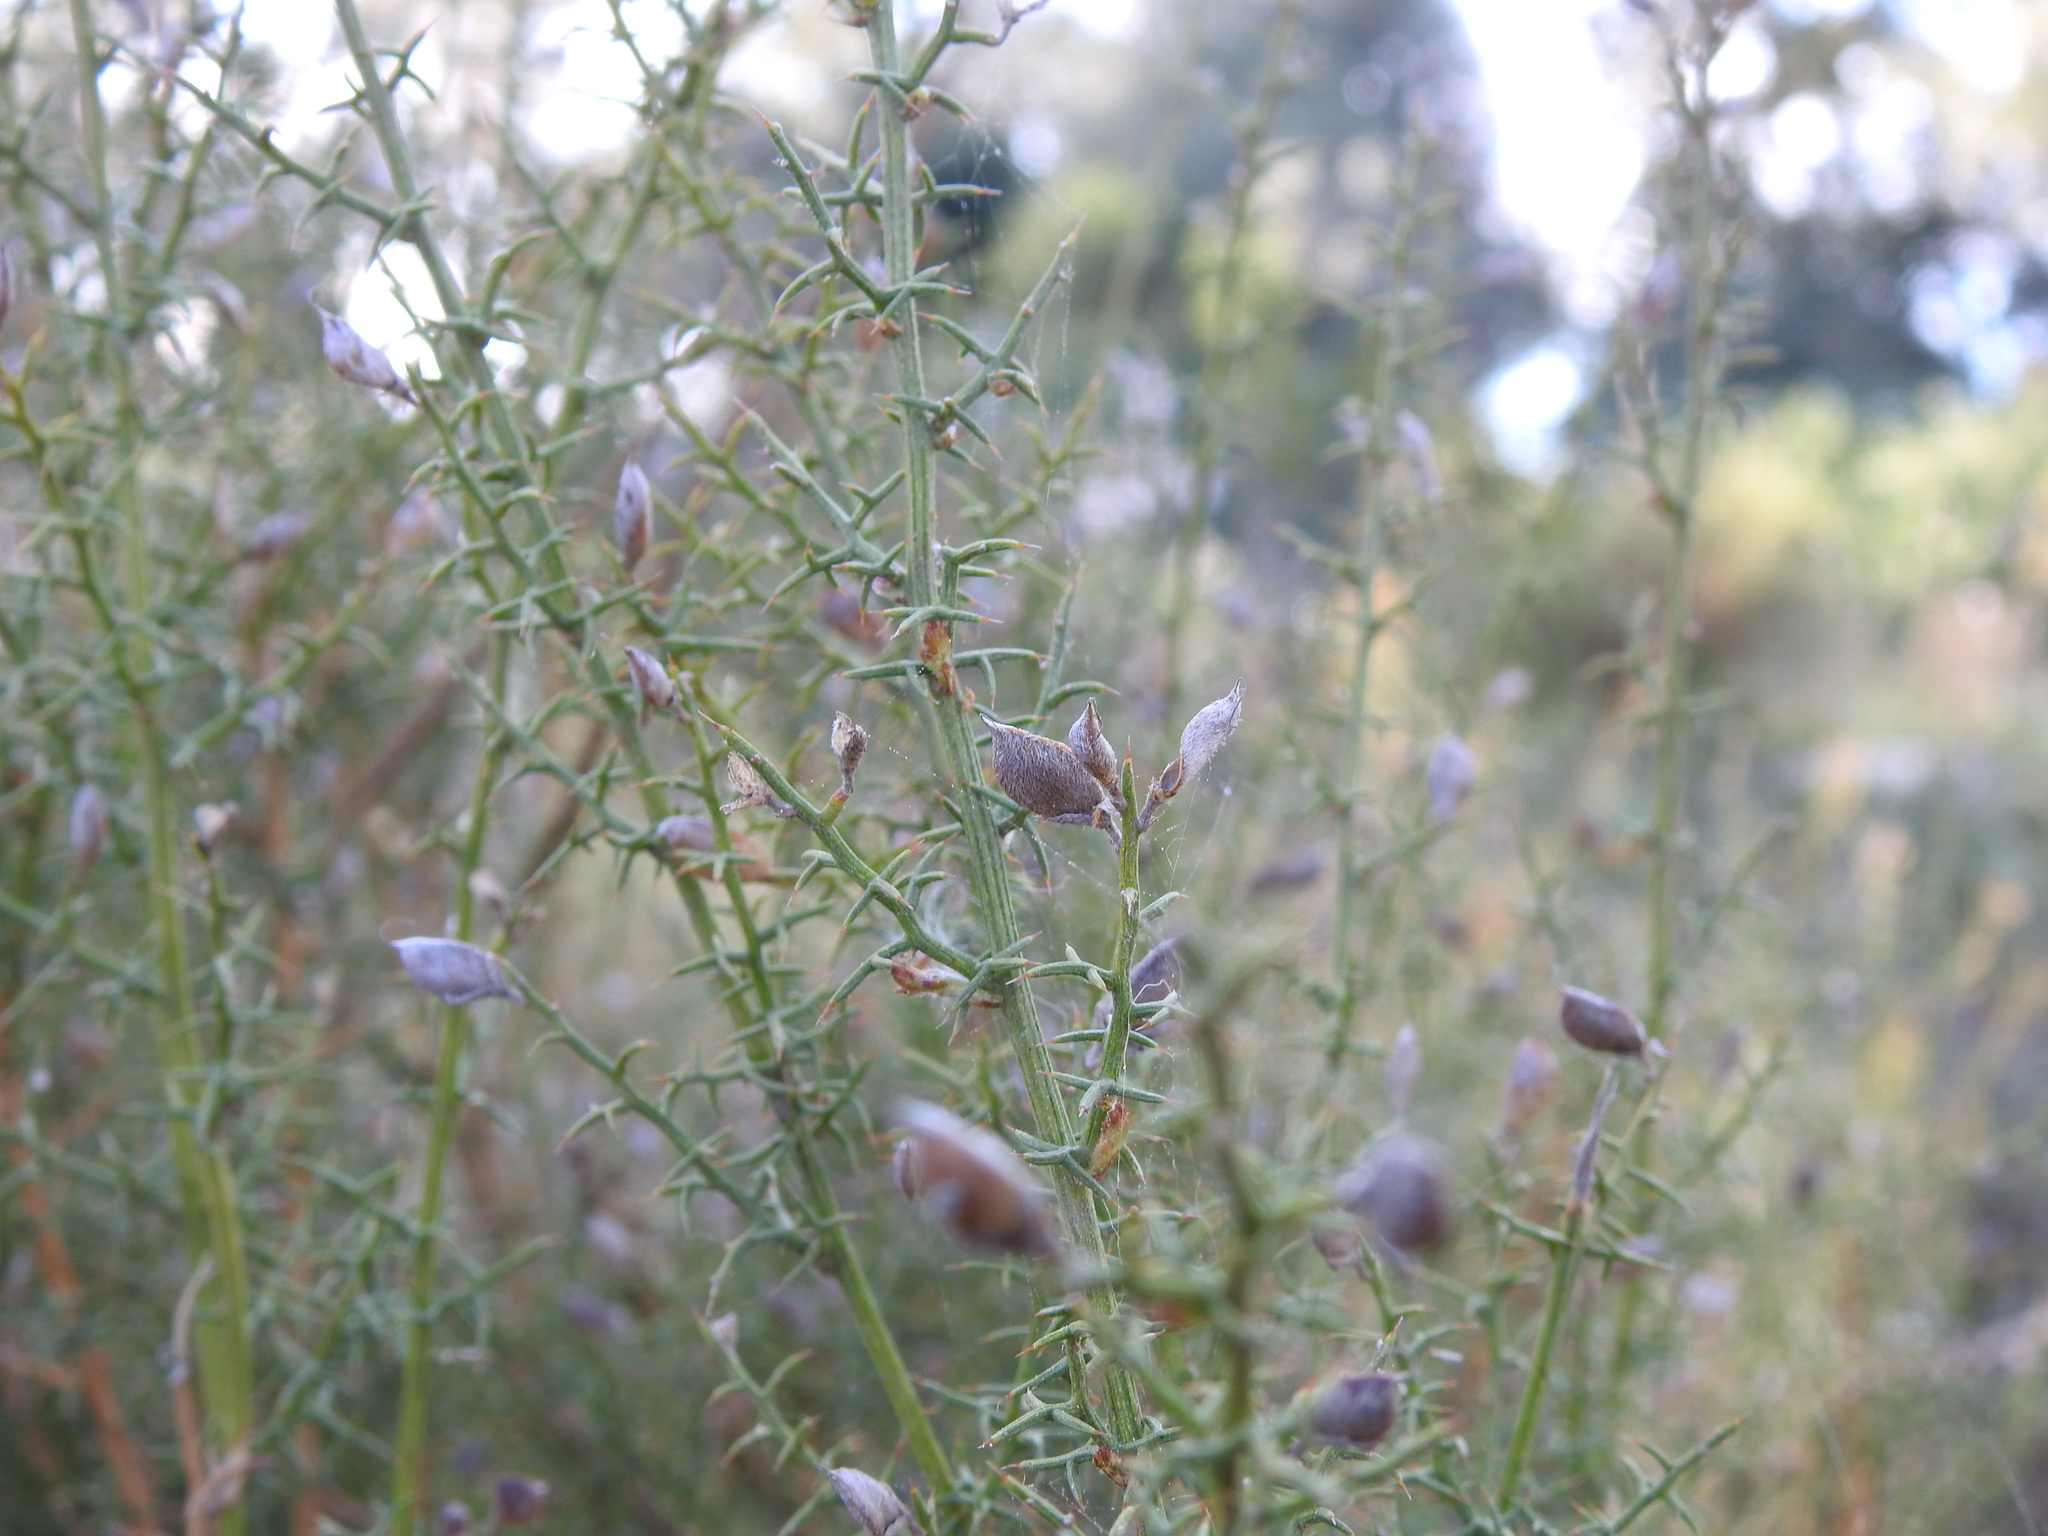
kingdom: Plantae
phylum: Tracheophyta
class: Magnoliopsida
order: Fabales
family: Fabaceae
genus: Stauracanthus
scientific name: Stauracanthus boivinii
